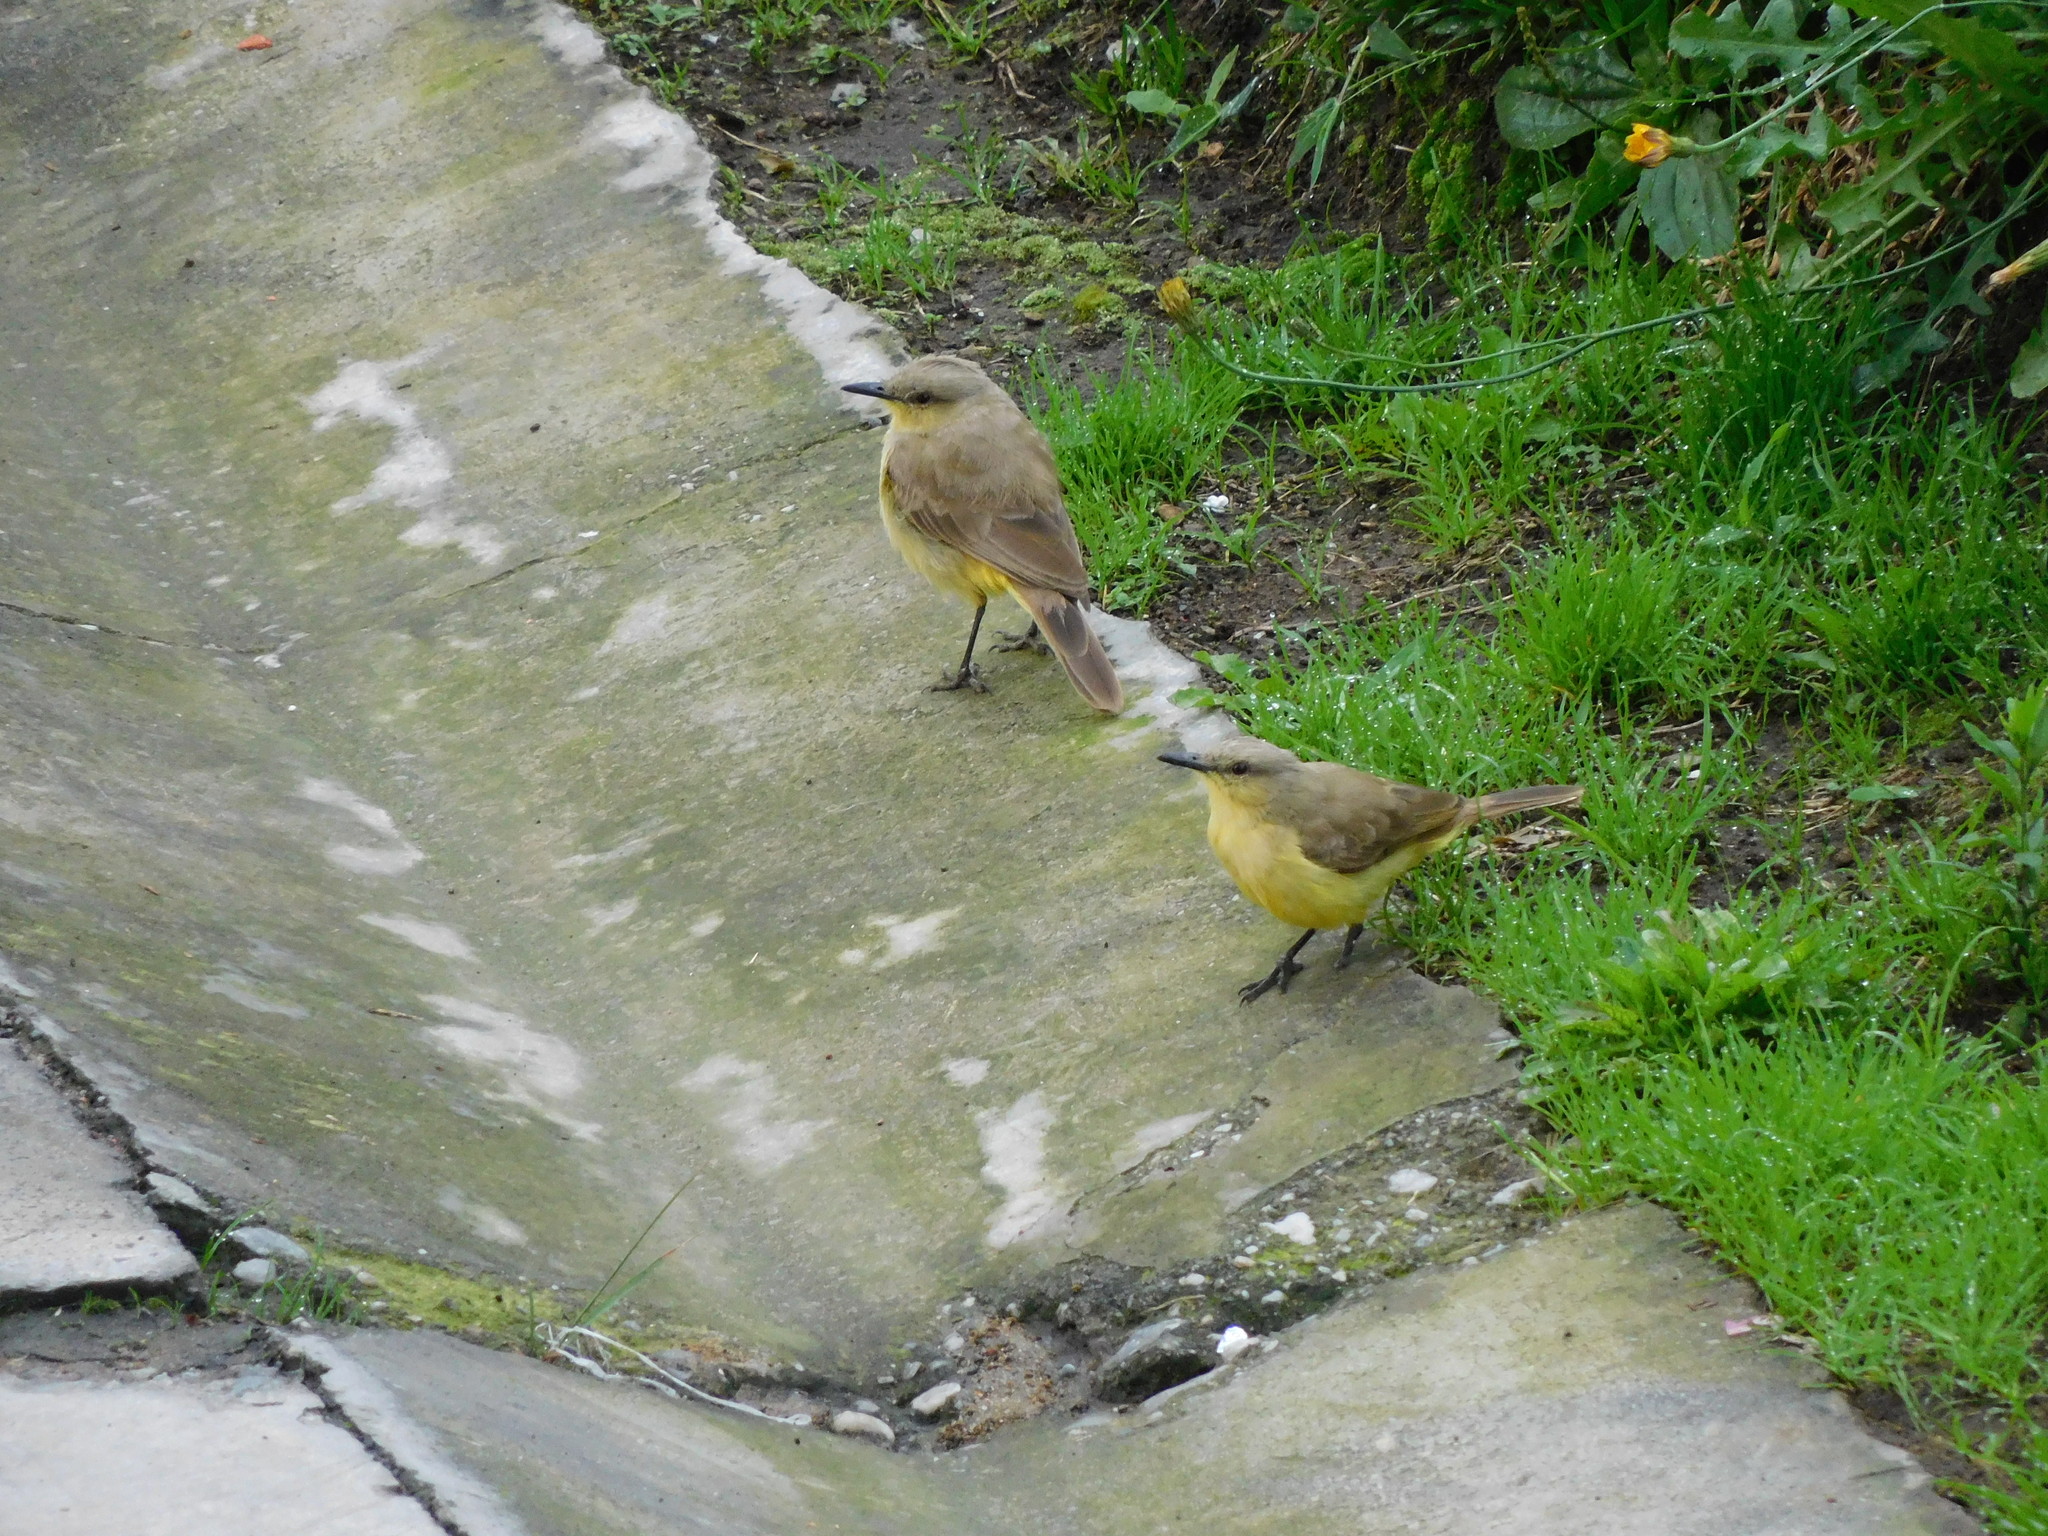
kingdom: Animalia
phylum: Chordata
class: Aves
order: Passeriformes
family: Tyrannidae
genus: Machetornis
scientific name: Machetornis rixosa
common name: Cattle tyrant
